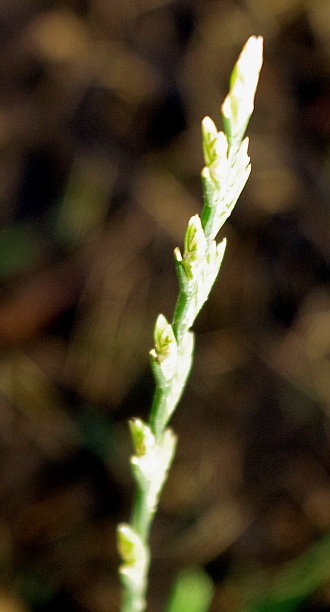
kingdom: Plantae
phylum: Tracheophyta
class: Liliopsida
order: Poales
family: Poaceae
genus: Lolium
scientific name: Lolium perenne
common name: Perennial ryegrass
